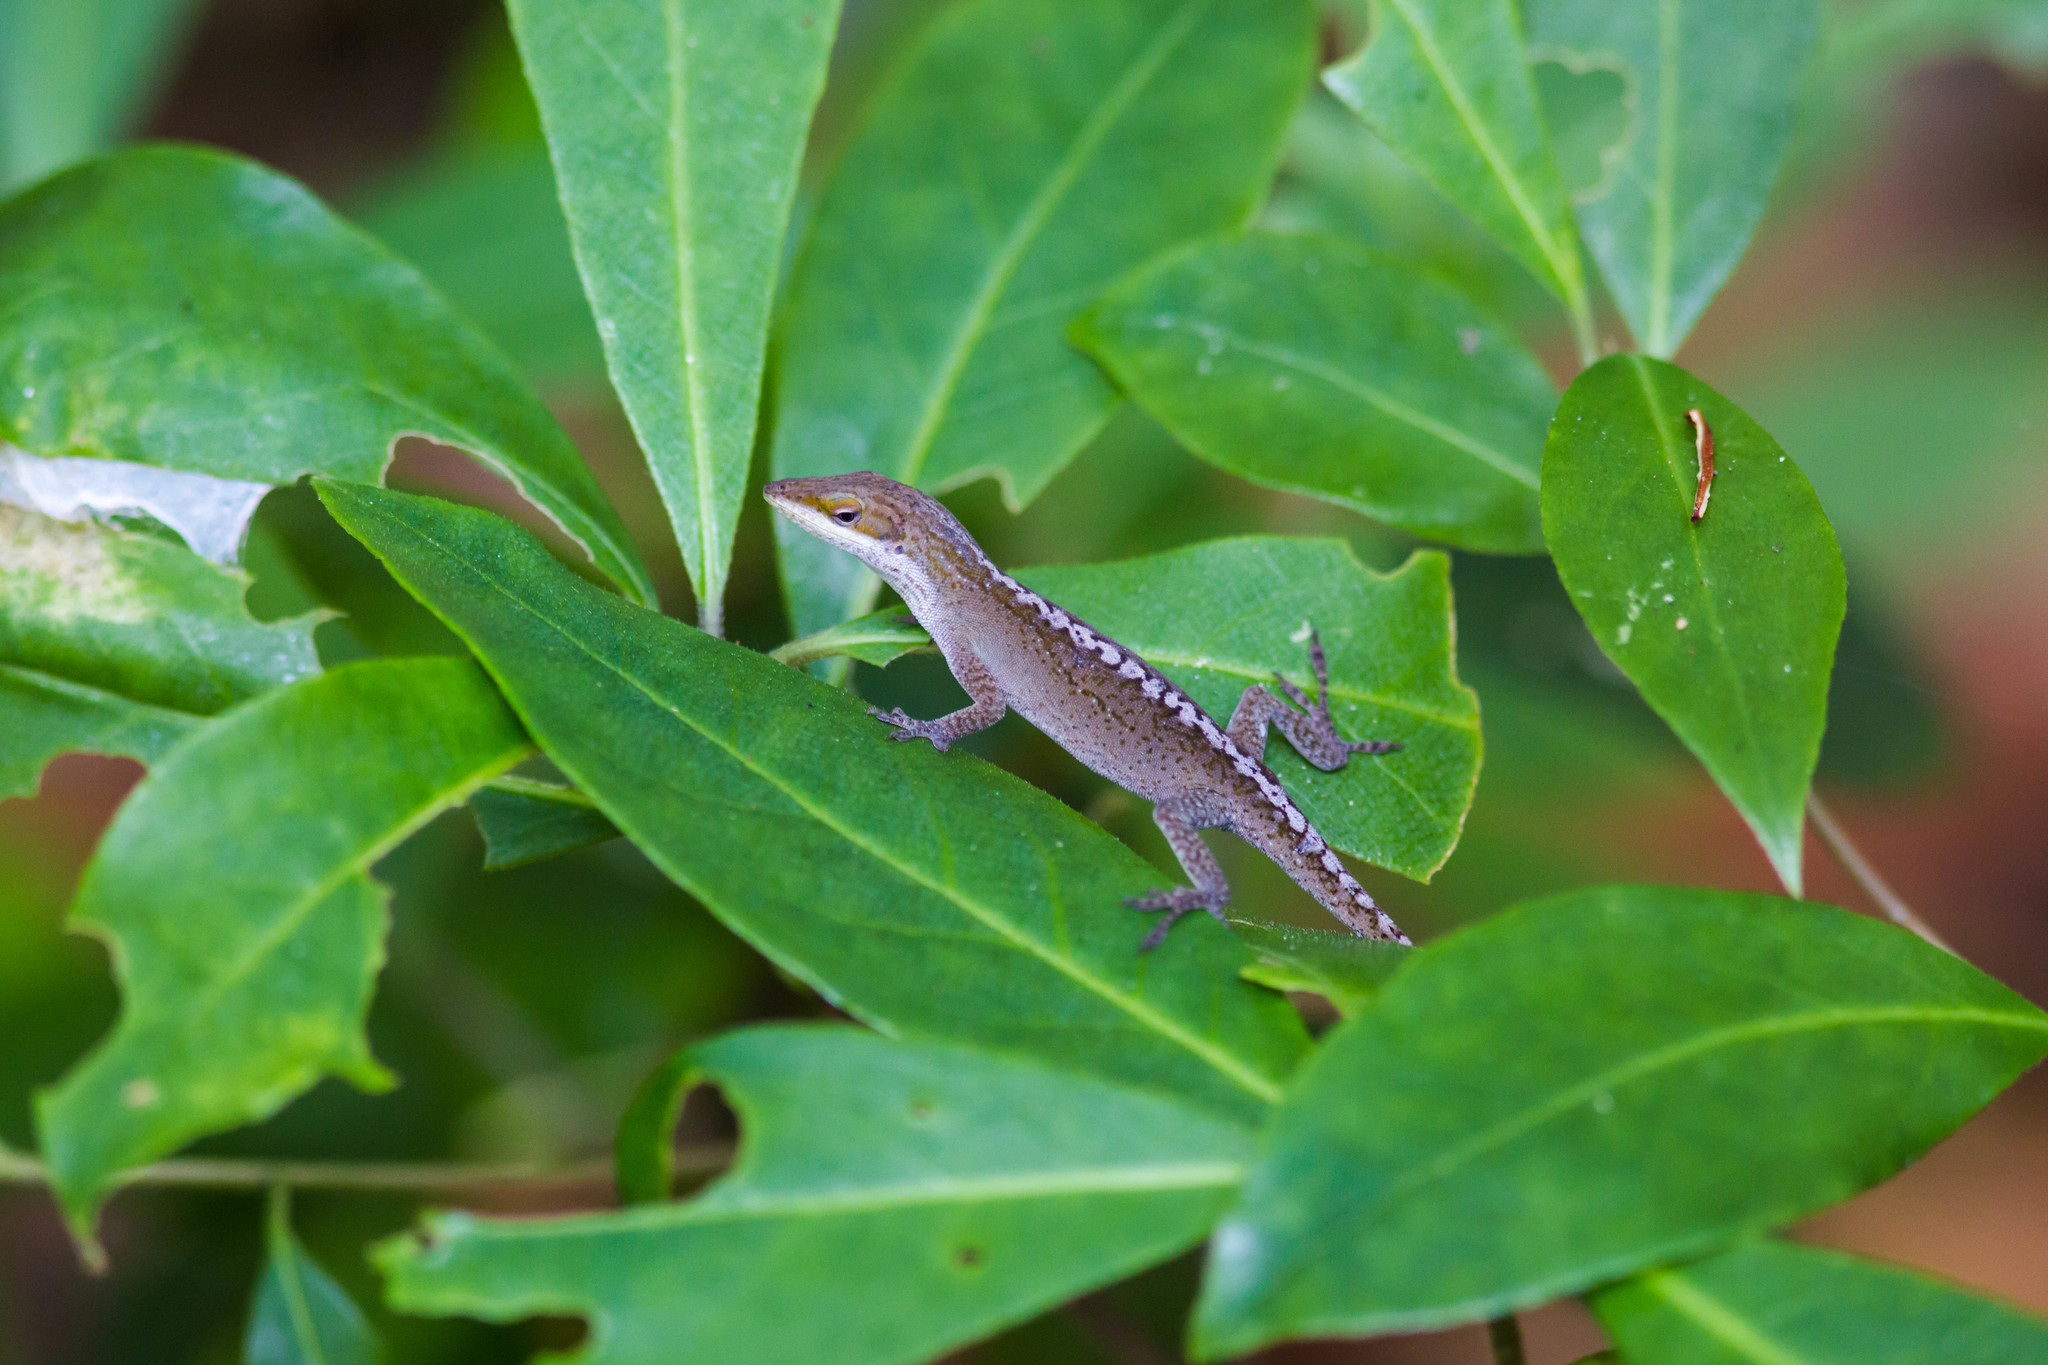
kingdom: Animalia
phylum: Chordata
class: Squamata
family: Dactyloidae
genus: Anolis
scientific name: Anolis carolinensis
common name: Green anole
